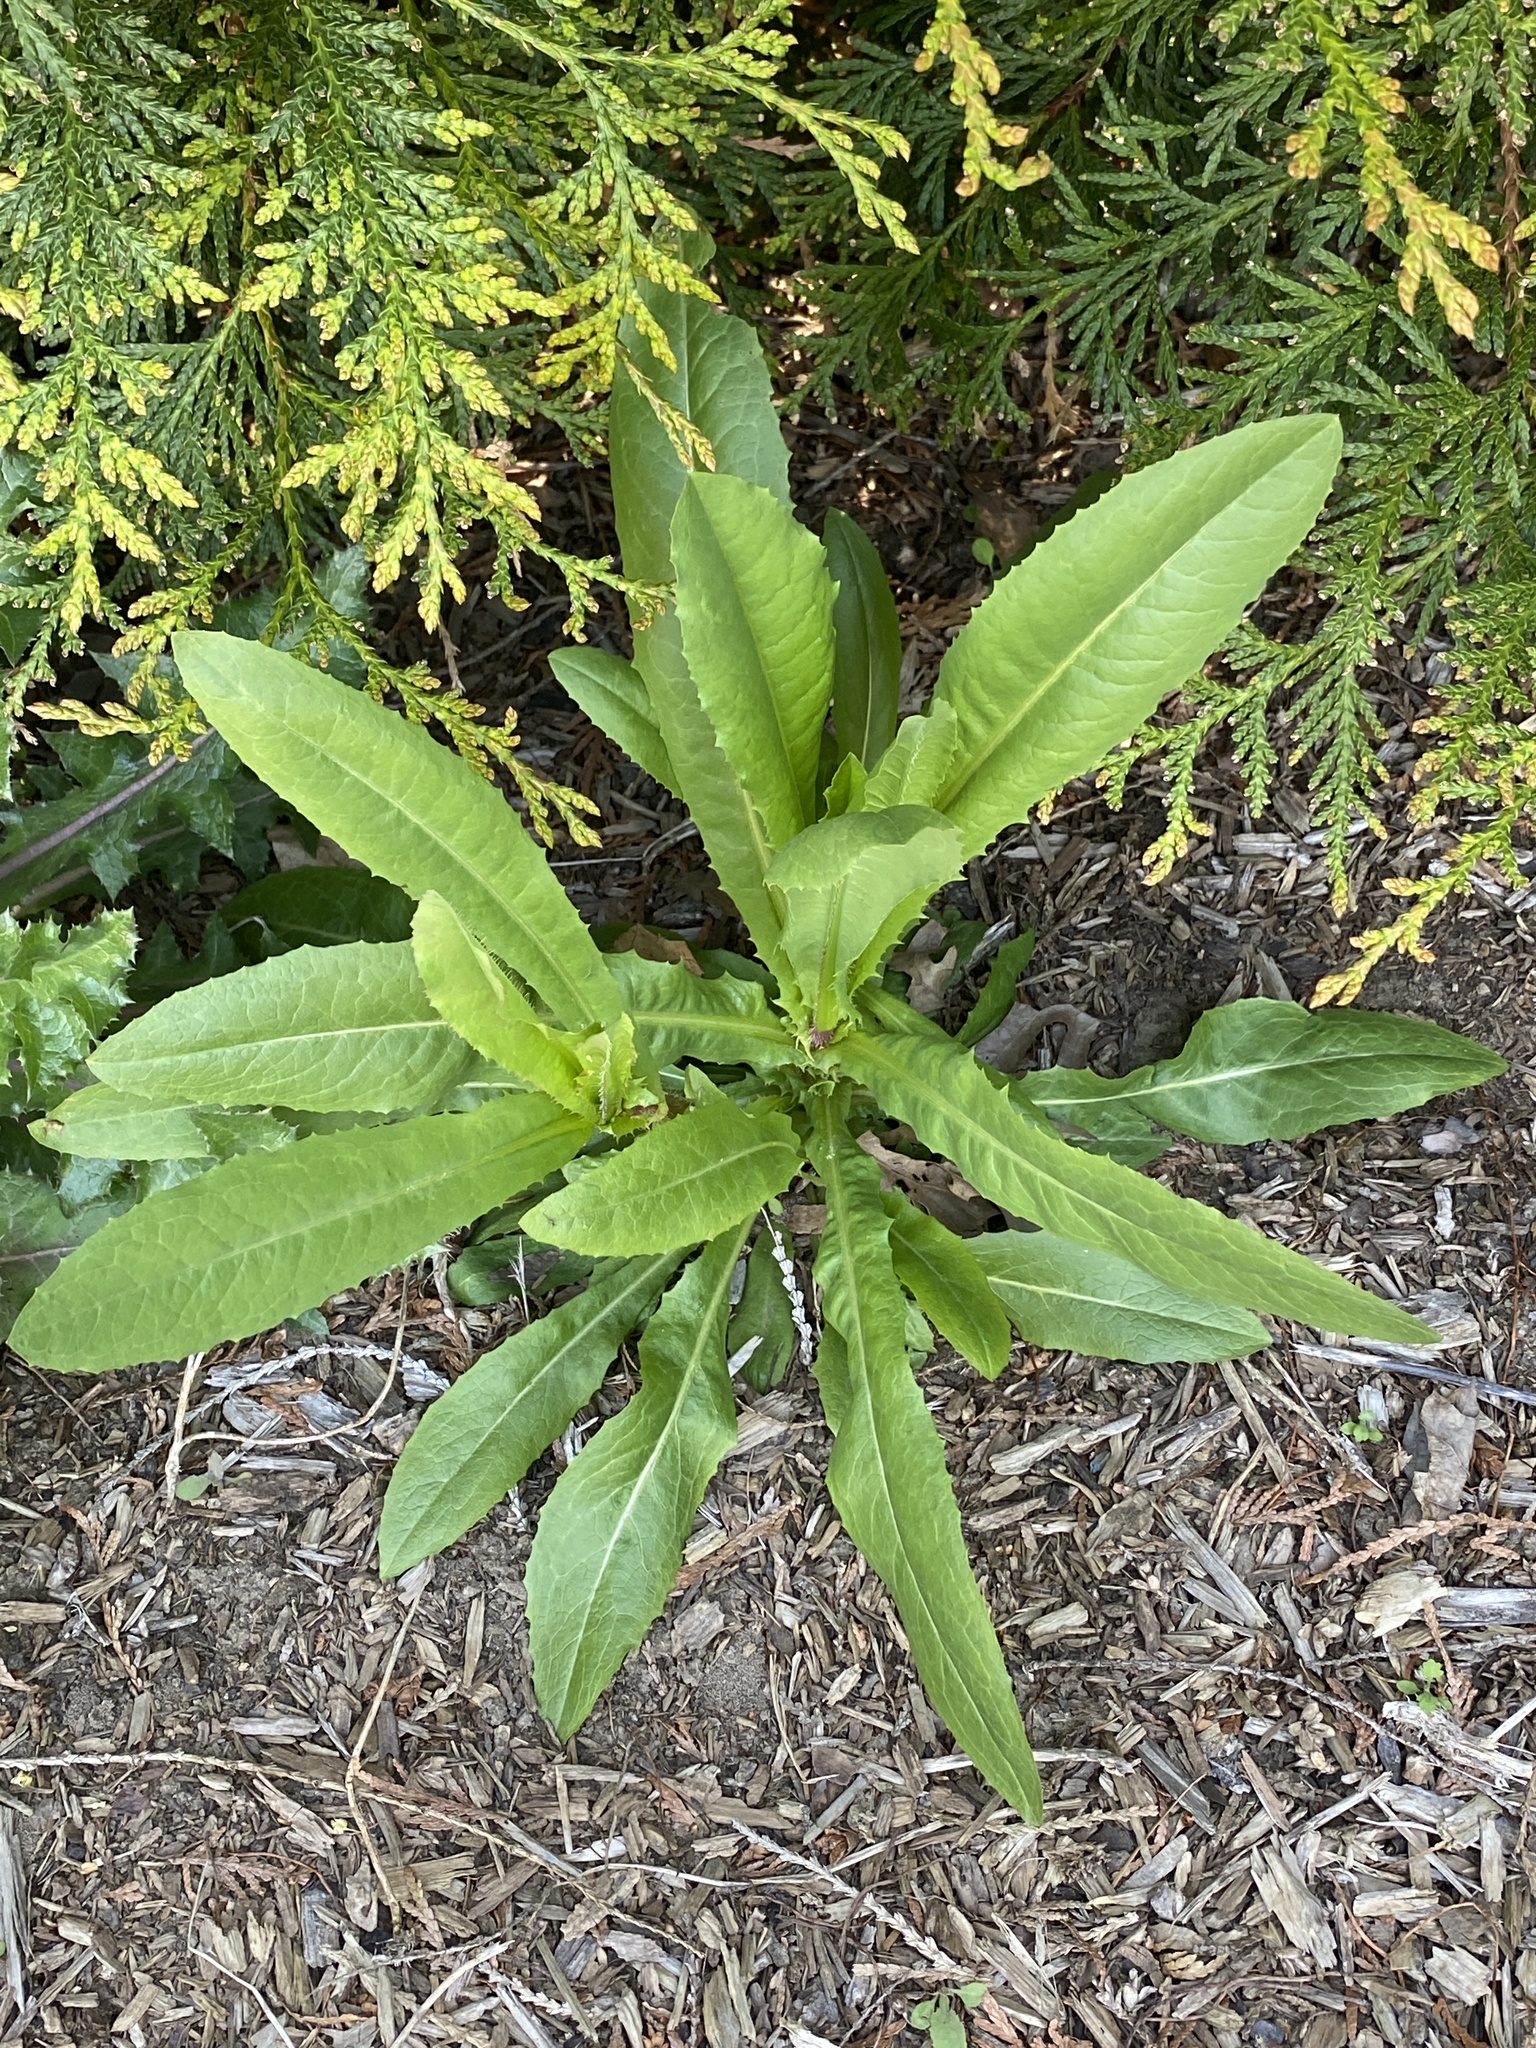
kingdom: Plantae
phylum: Tracheophyta
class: Magnoliopsida
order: Asterales
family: Asteraceae
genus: Lactuca
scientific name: Lactuca serriola
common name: Prickly lettuce
